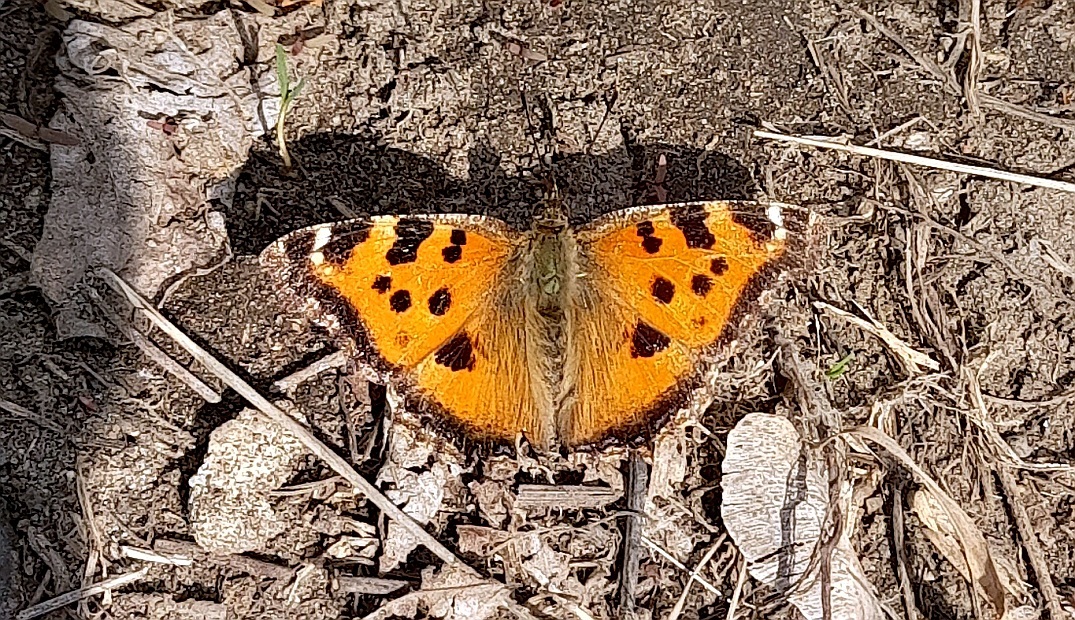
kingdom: Animalia
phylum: Arthropoda
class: Insecta
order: Lepidoptera
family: Nymphalidae
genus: Nymphalis
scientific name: Nymphalis xanthomelas
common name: Scarce tortoiseshell
